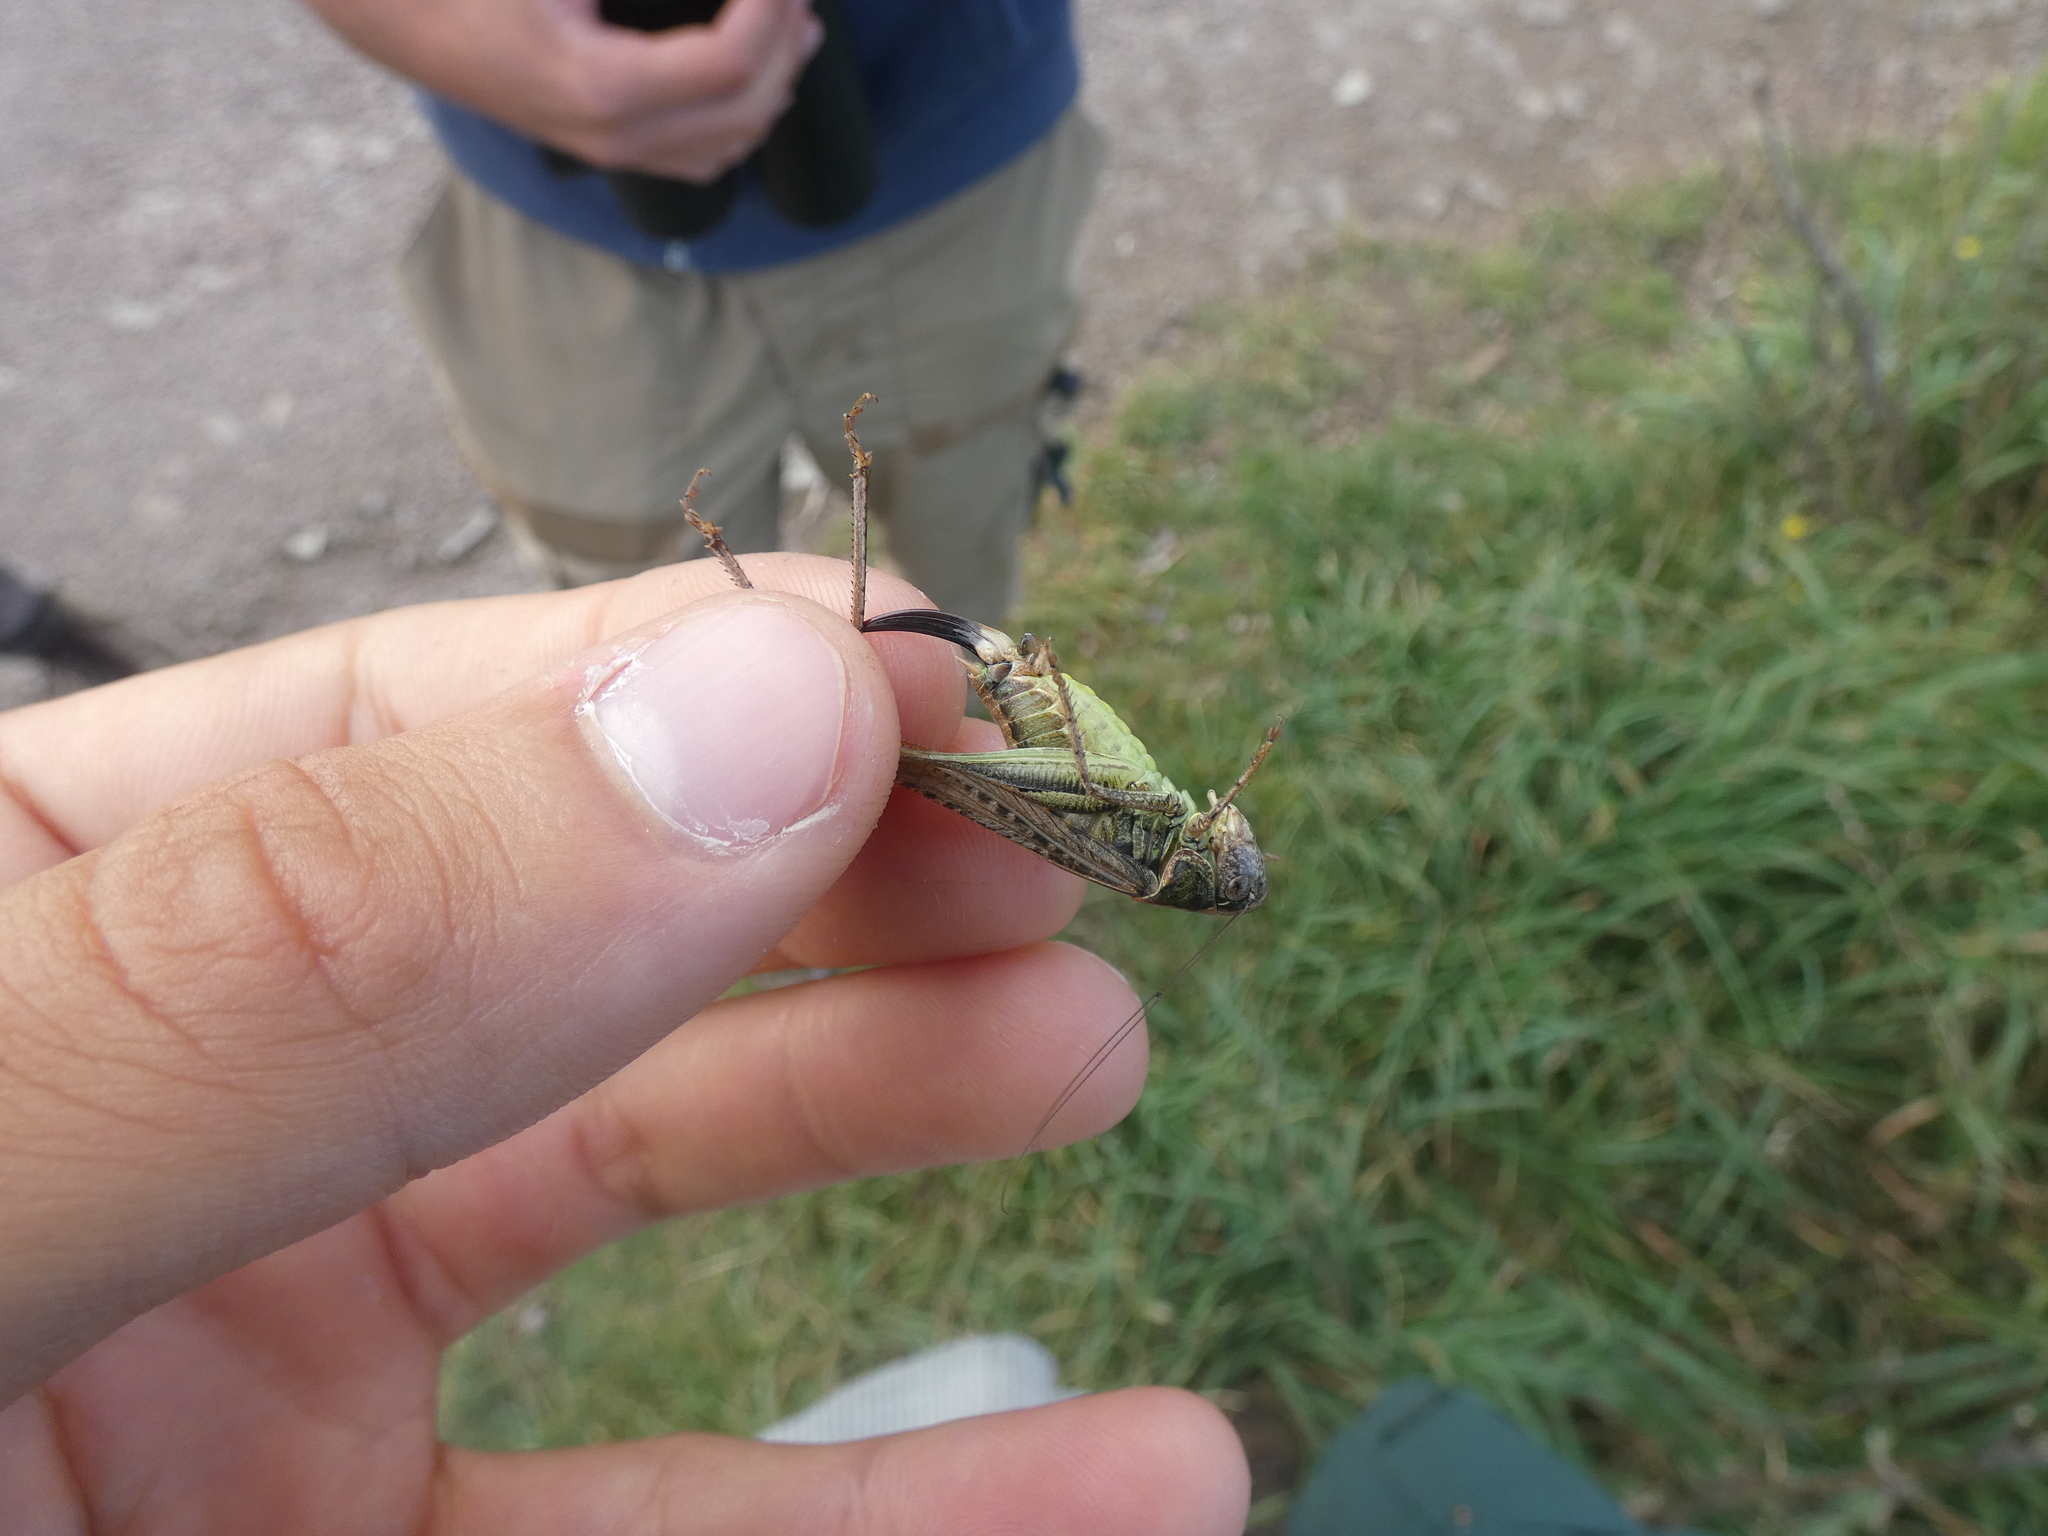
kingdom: Animalia
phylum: Arthropoda
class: Insecta
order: Orthoptera
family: Tettigoniidae
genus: Platycleis
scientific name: Platycleis albopunctata
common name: Grey bush-cricket
